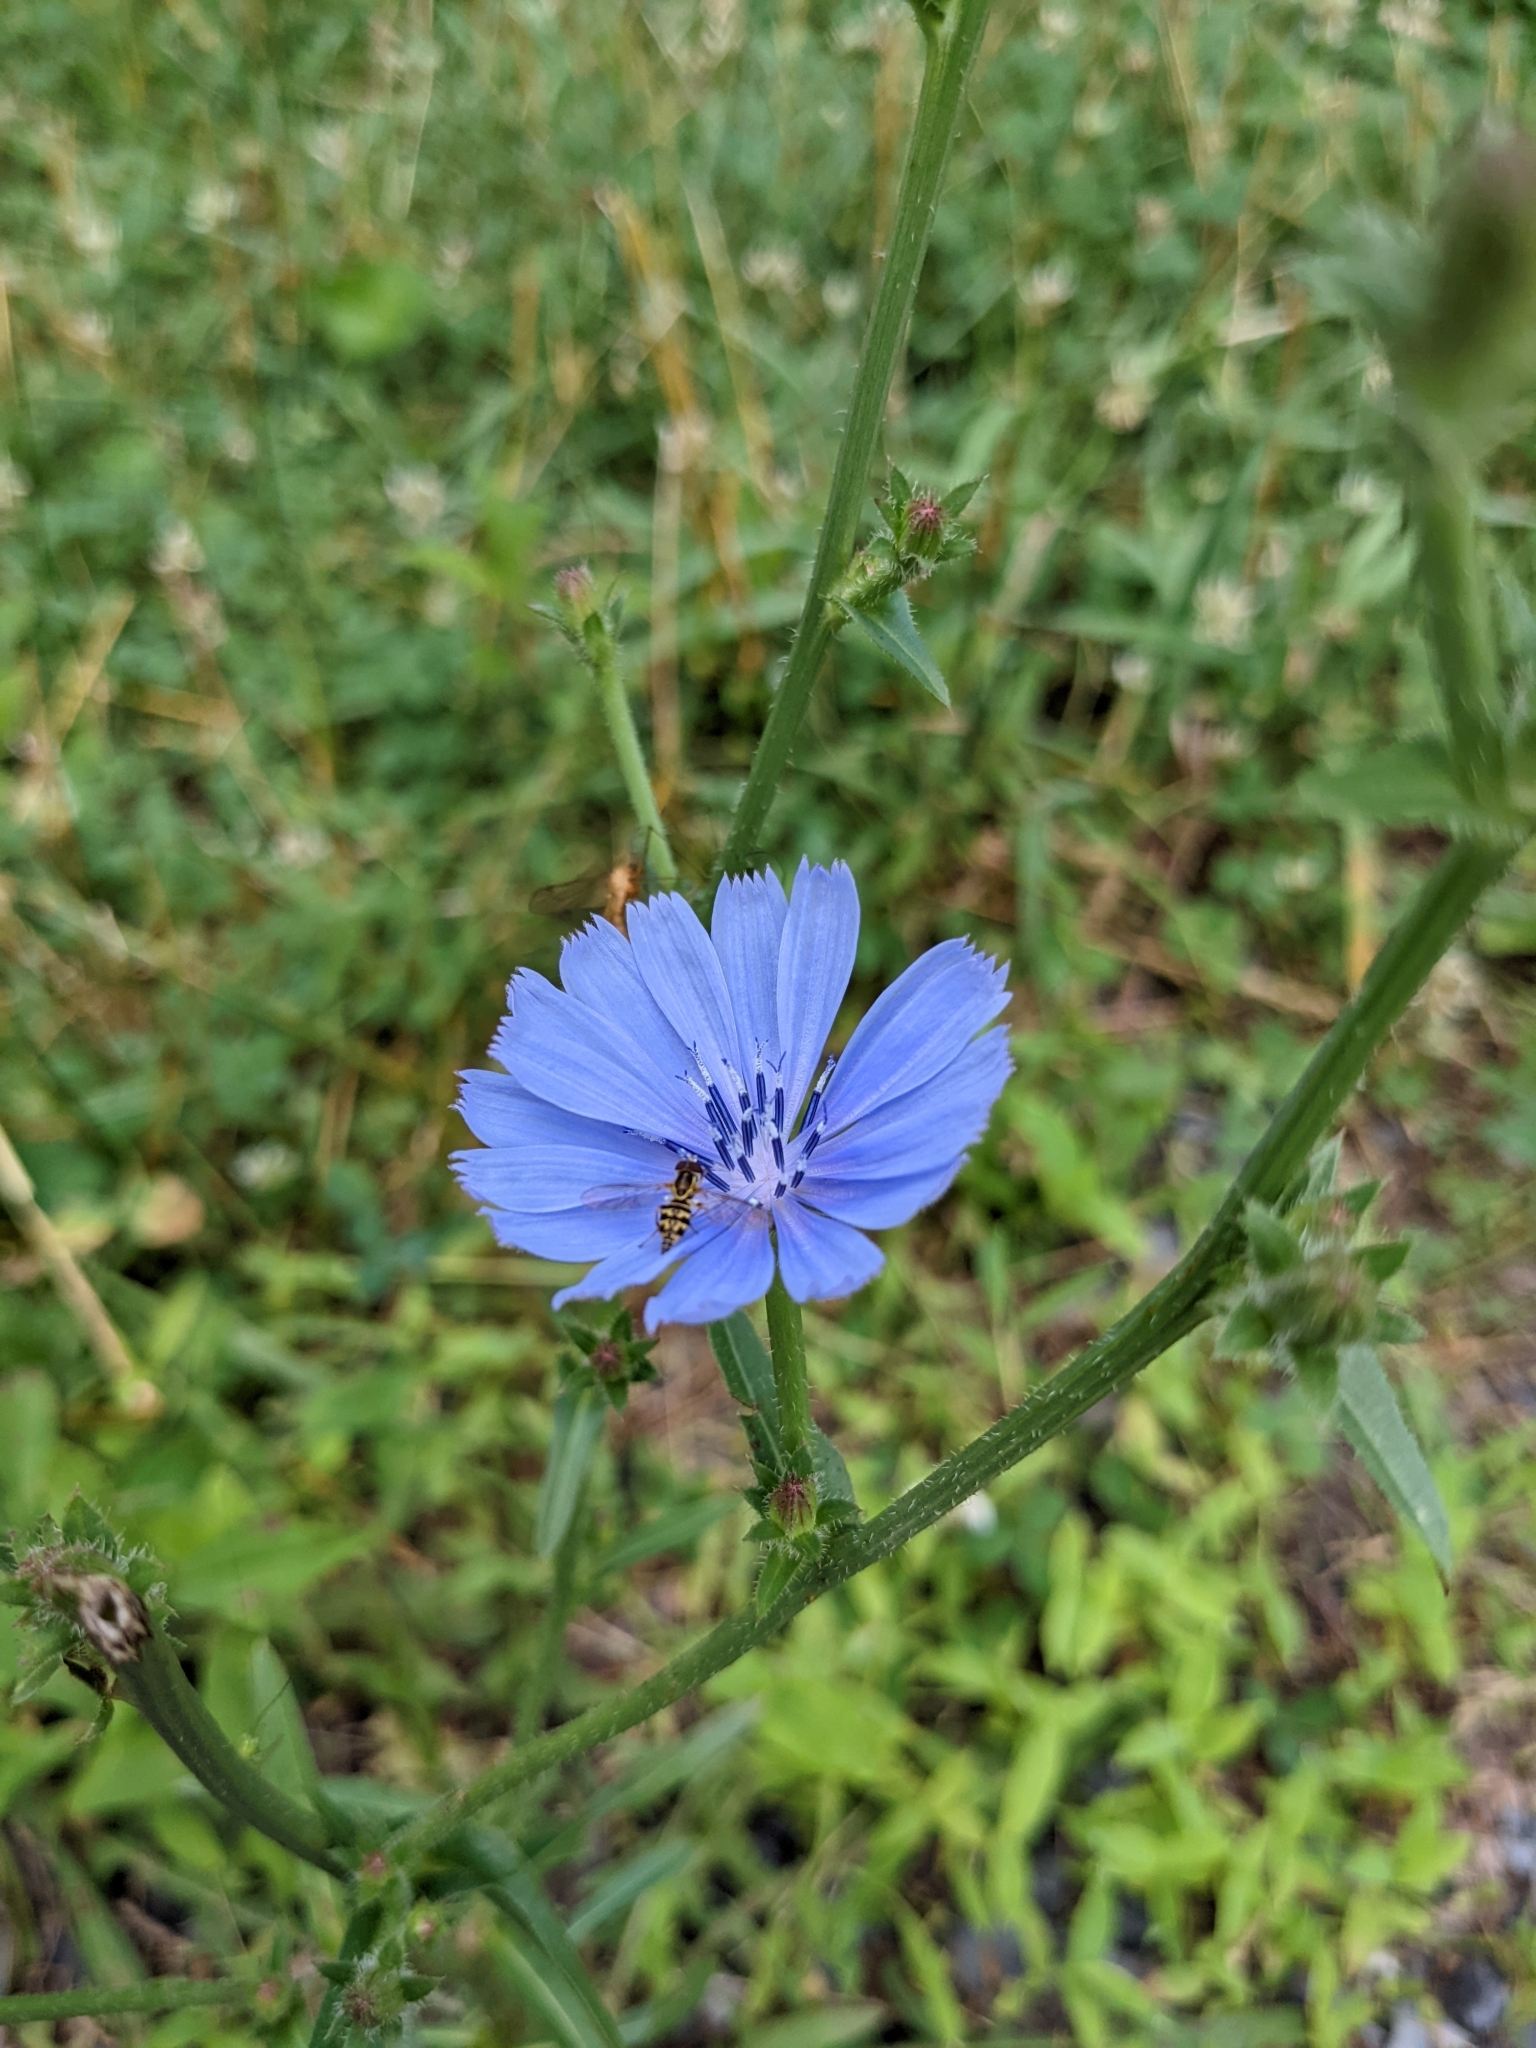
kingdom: Plantae
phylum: Tracheophyta
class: Magnoliopsida
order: Asterales
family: Asteraceae
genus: Cichorium
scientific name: Cichorium intybus
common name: Chicory
